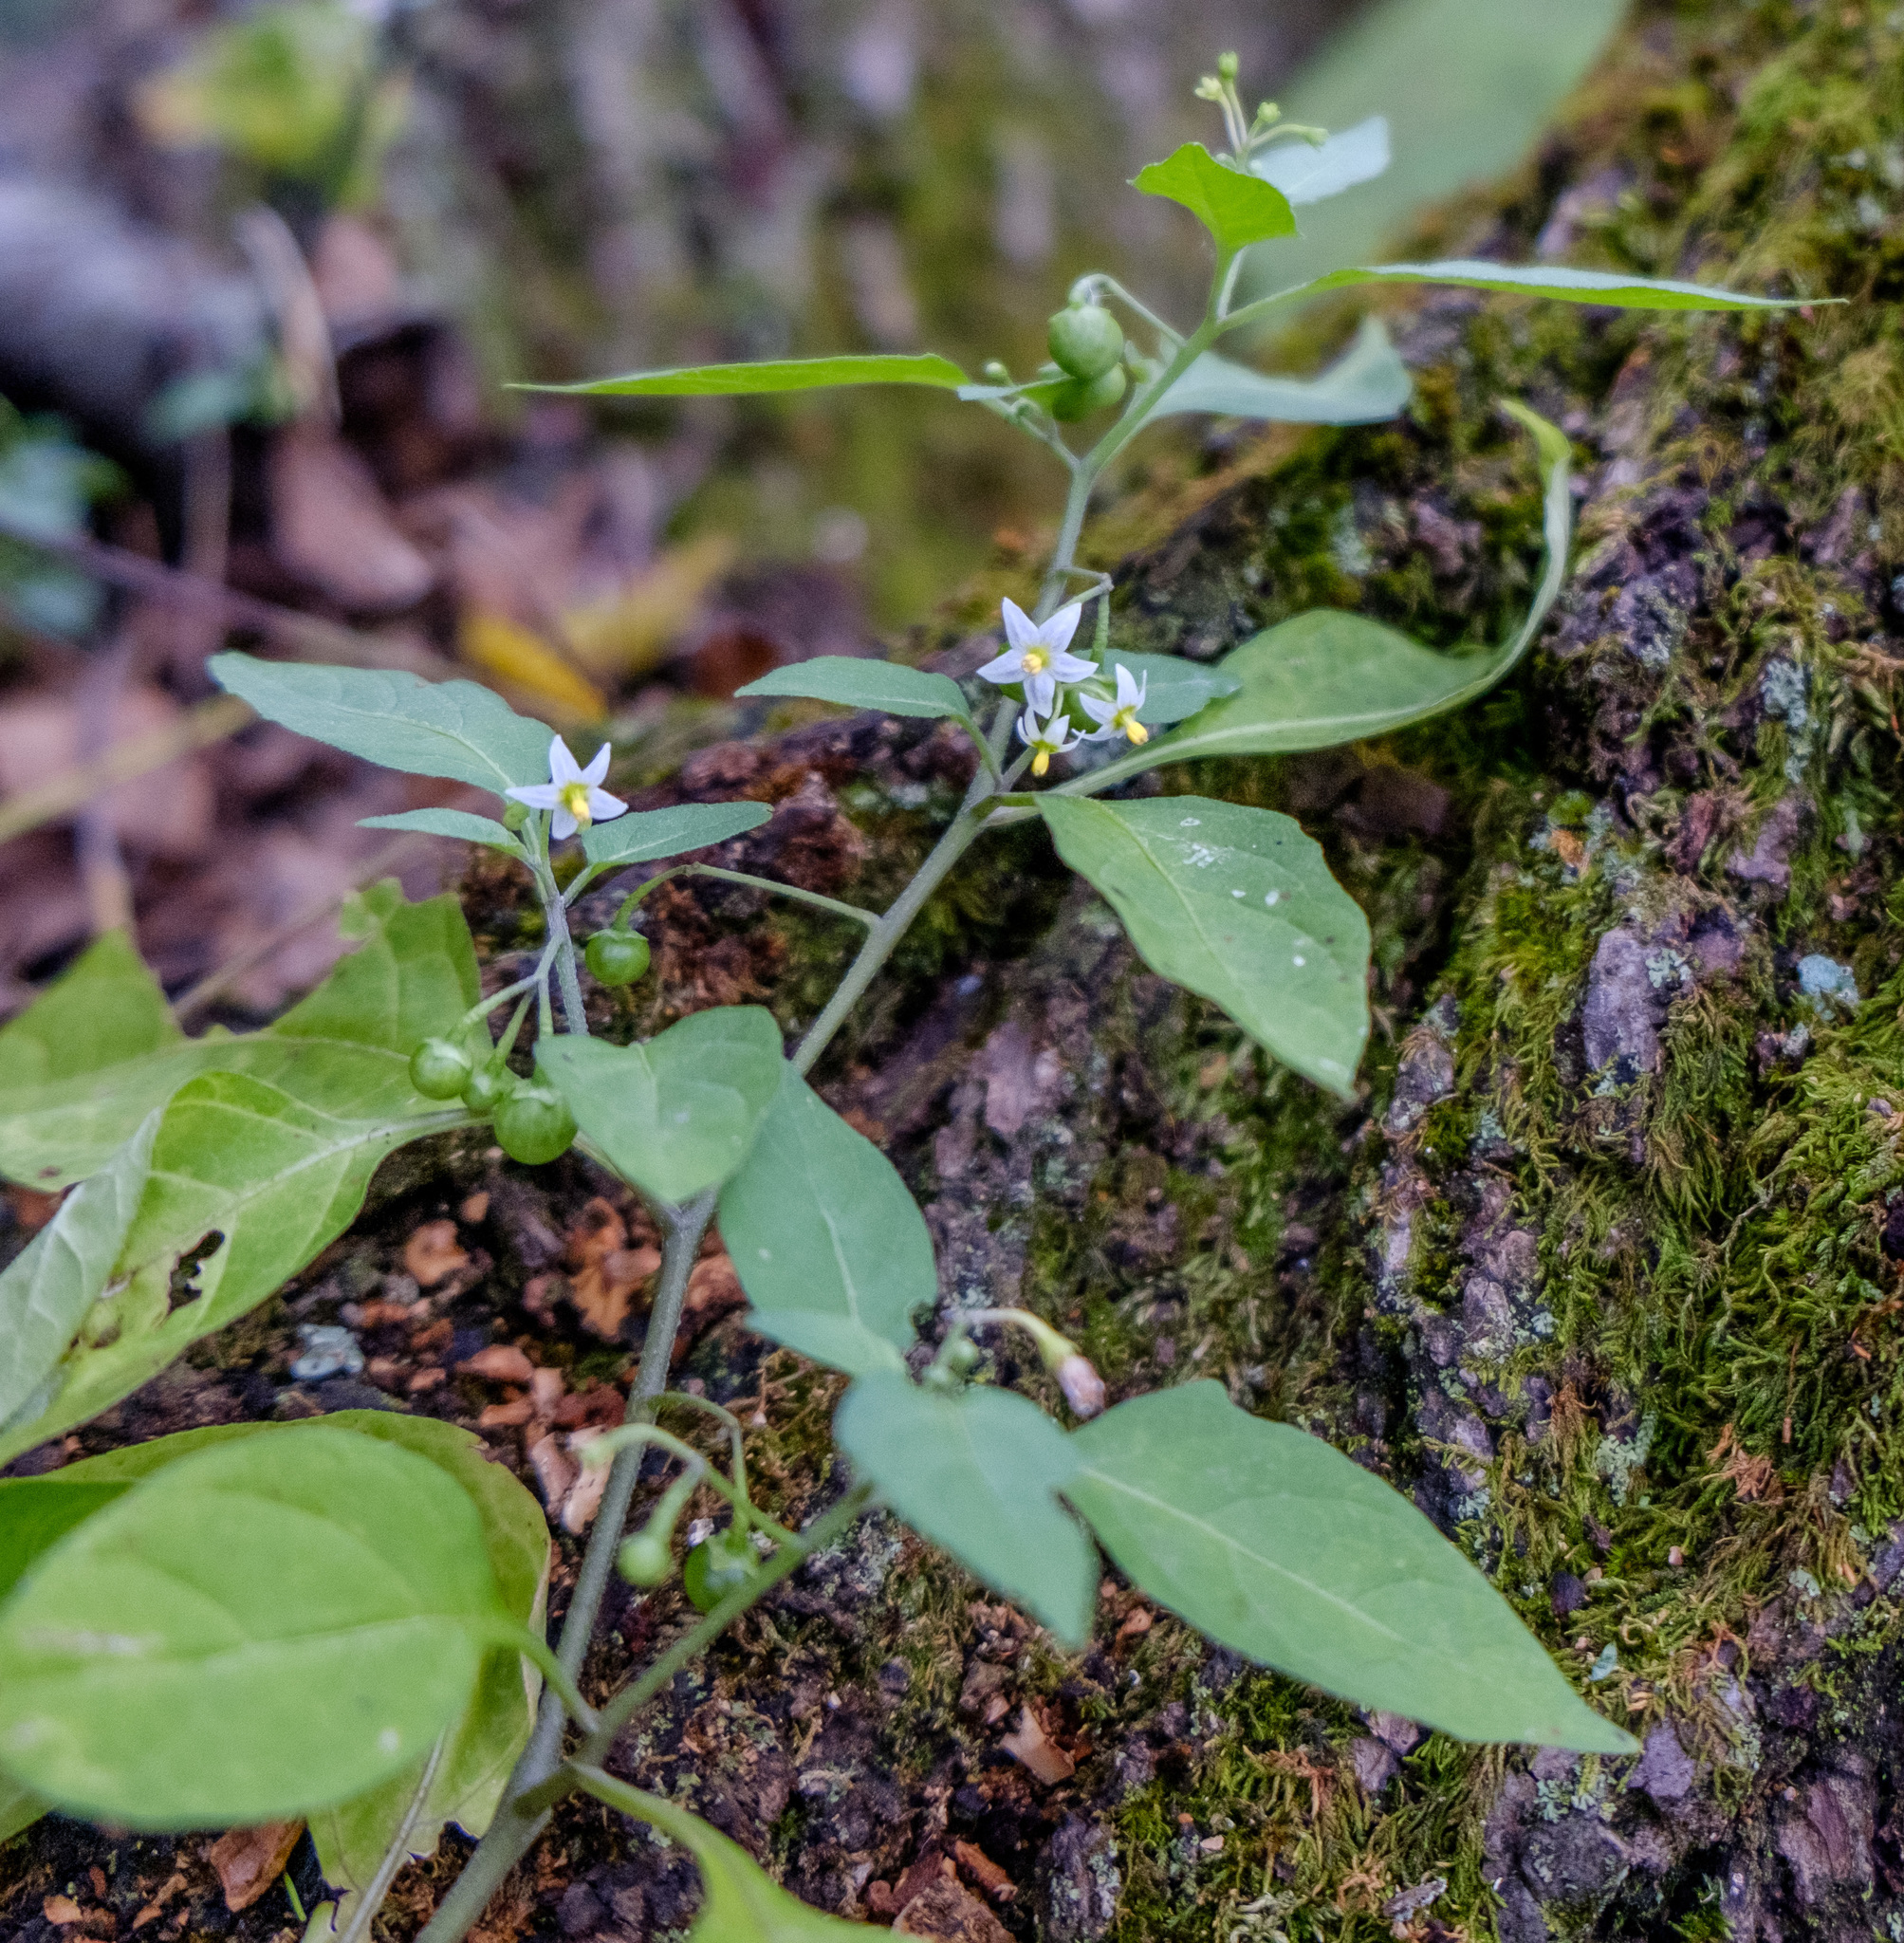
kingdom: Plantae
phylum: Tracheophyta
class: Magnoliopsida
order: Solanales
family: Solanaceae
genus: Solanum
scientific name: Solanum emulans
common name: Eastern black nightshade
